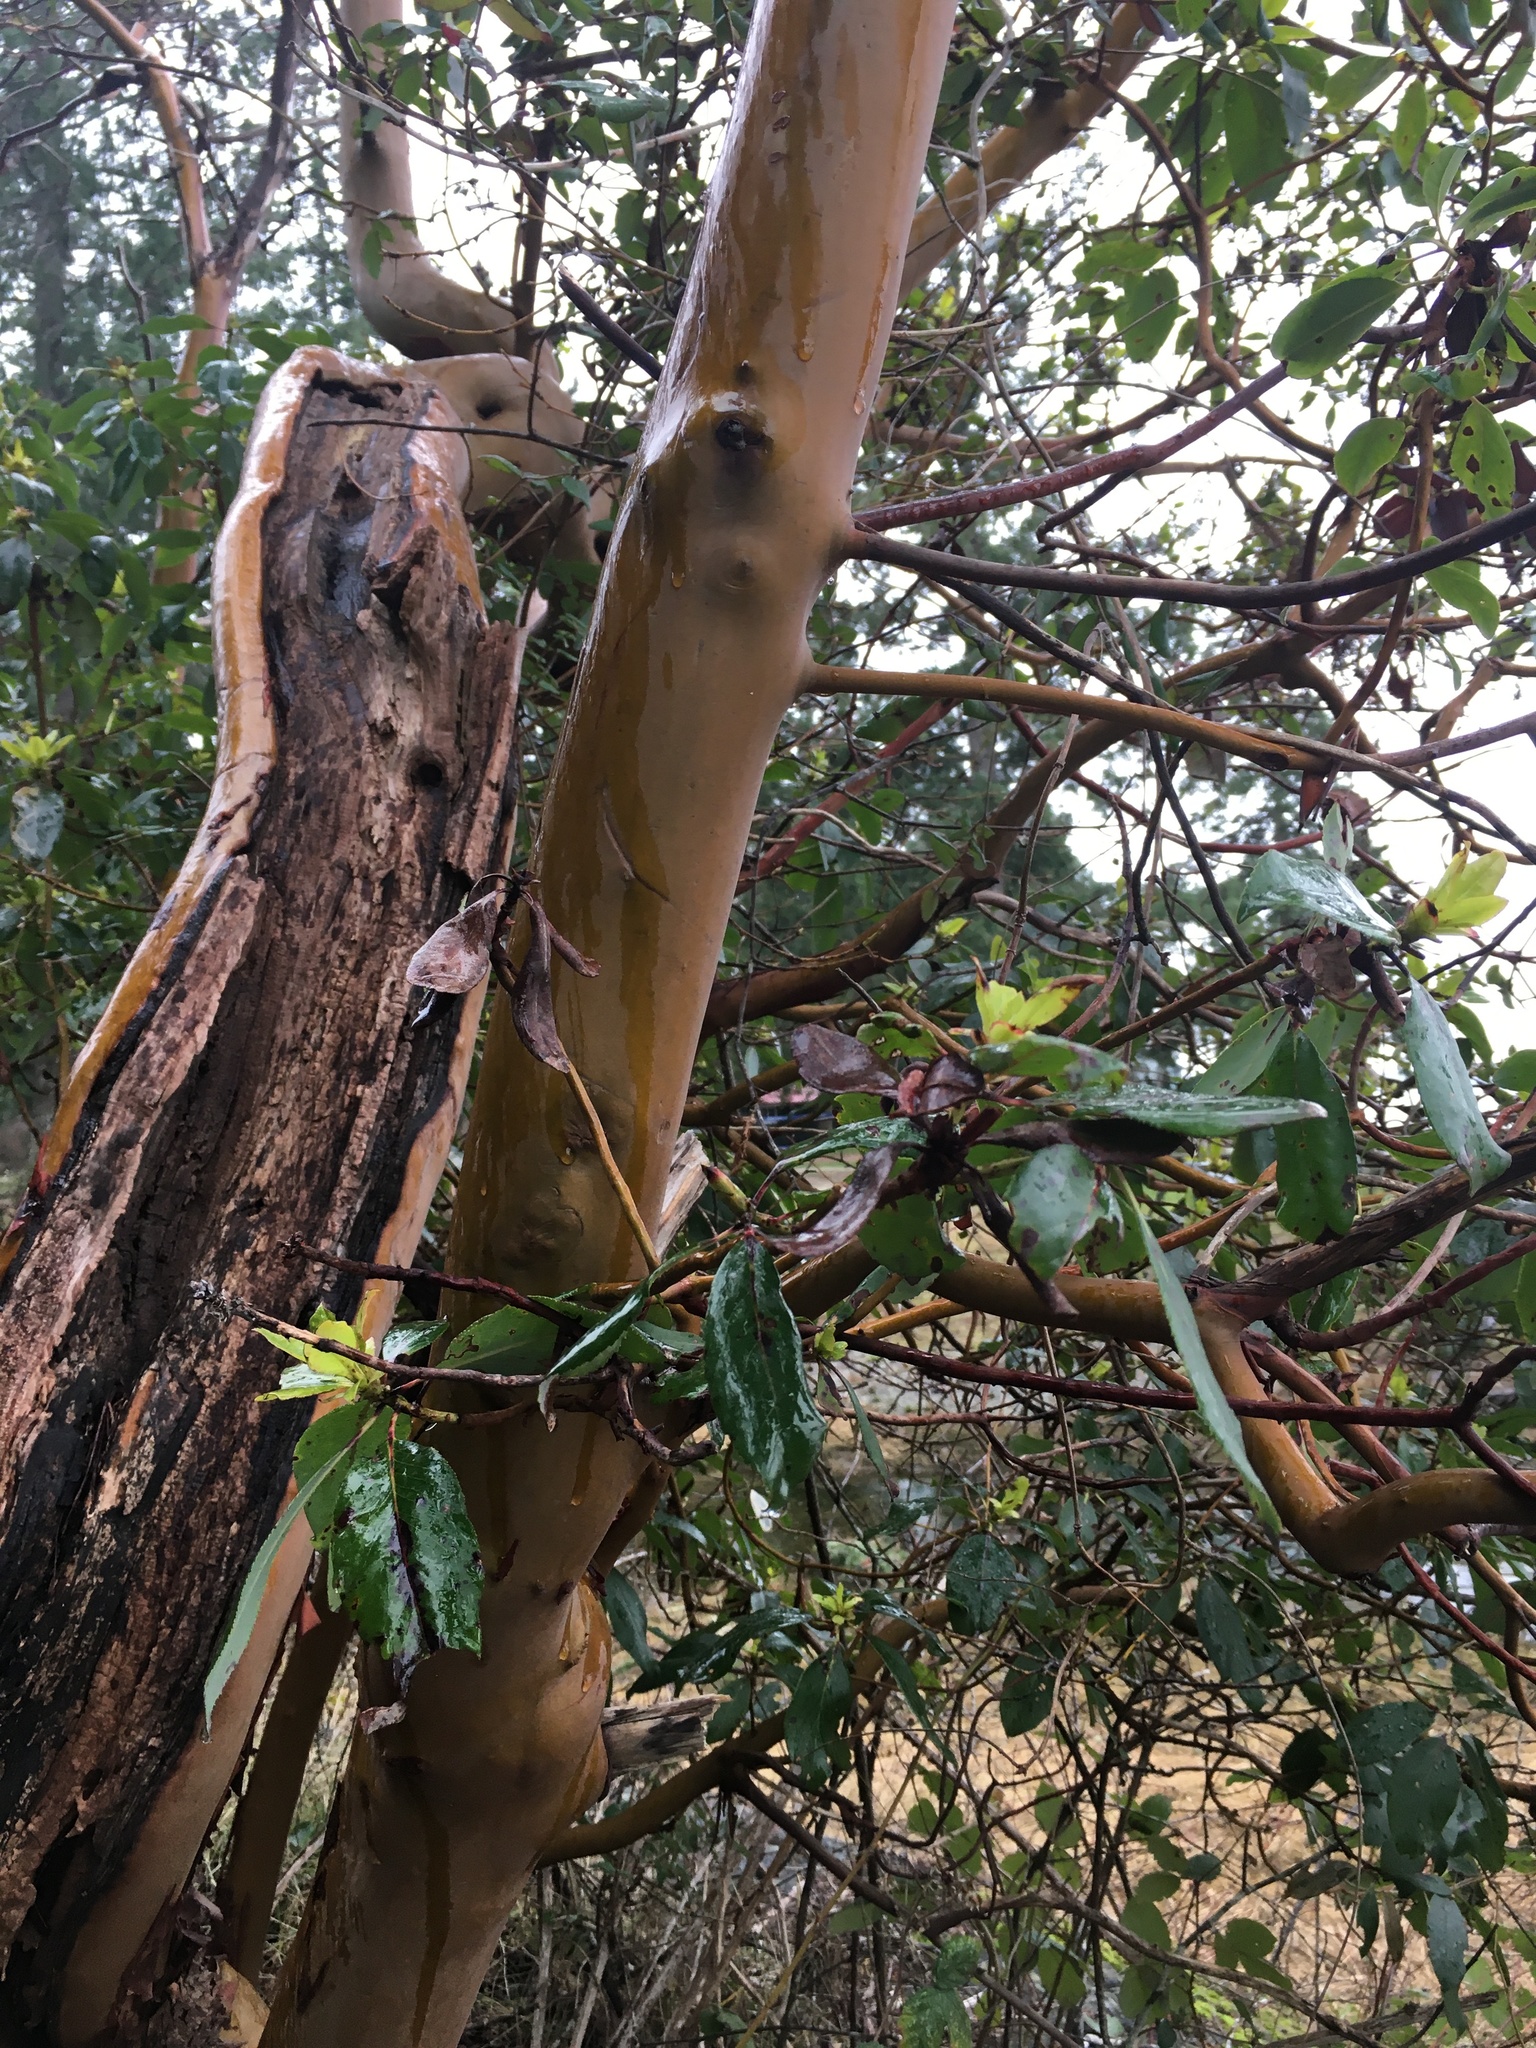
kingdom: Plantae
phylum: Tracheophyta
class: Magnoliopsida
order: Ericales
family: Ericaceae
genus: Arbutus
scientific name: Arbutus menziesii
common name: Pacific madrone
